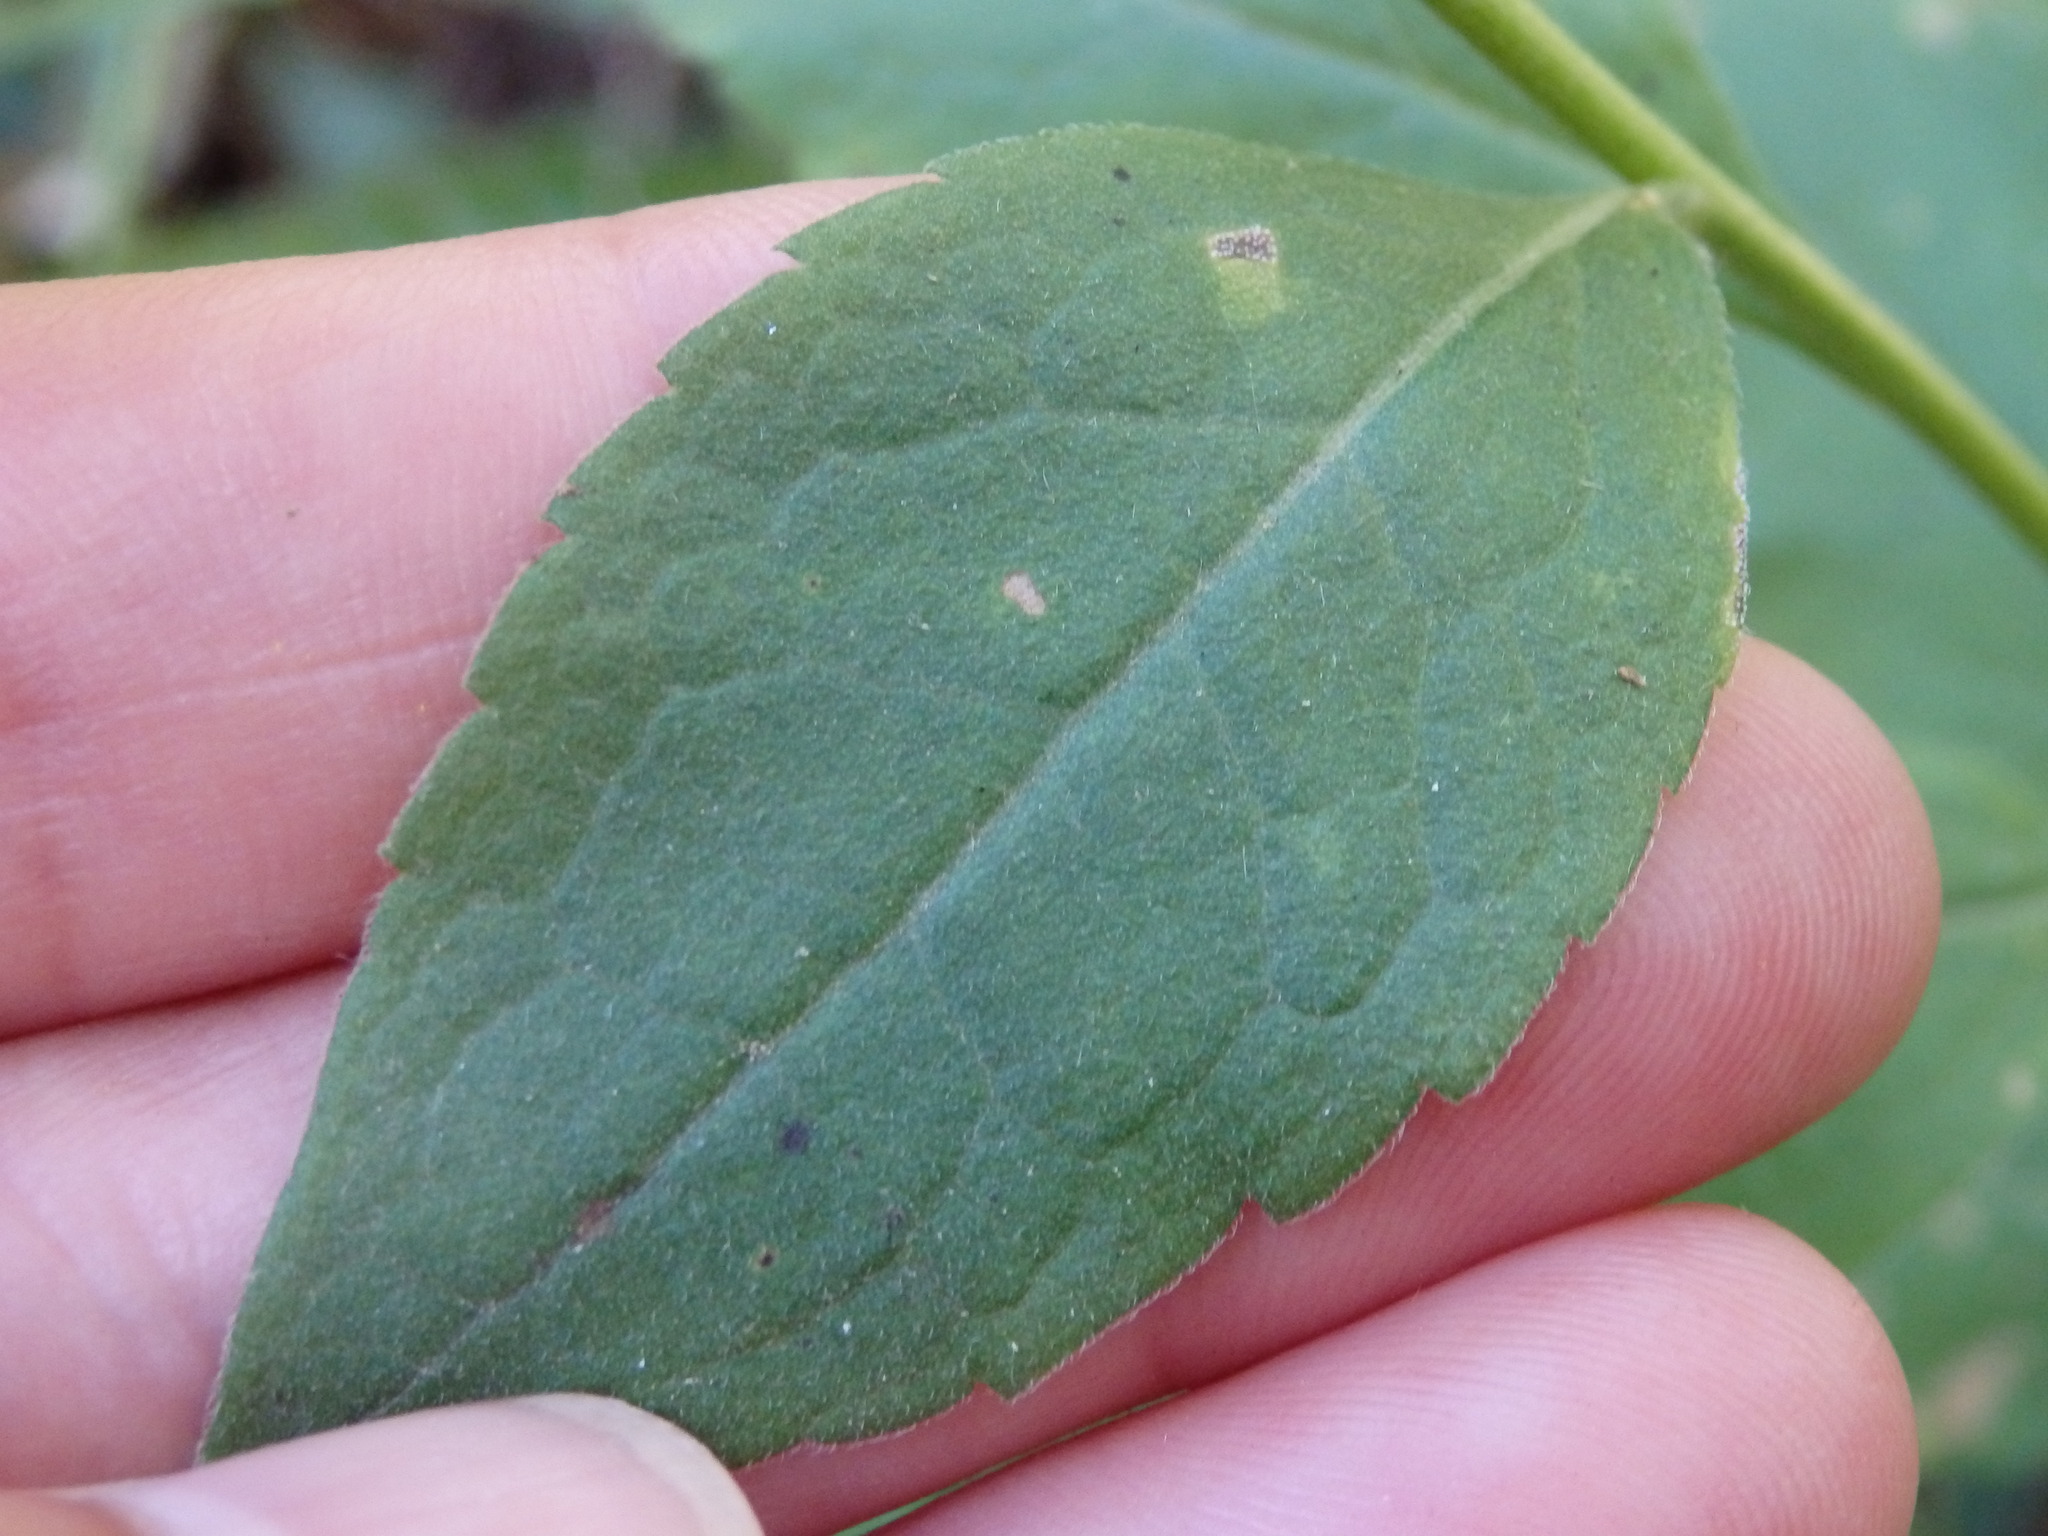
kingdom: Plantae
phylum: Tracheophyta
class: Magnoliopsida
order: Asterales
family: Asteraceae
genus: Solidago
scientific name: Solidago virgaurea
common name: Goldenrod
